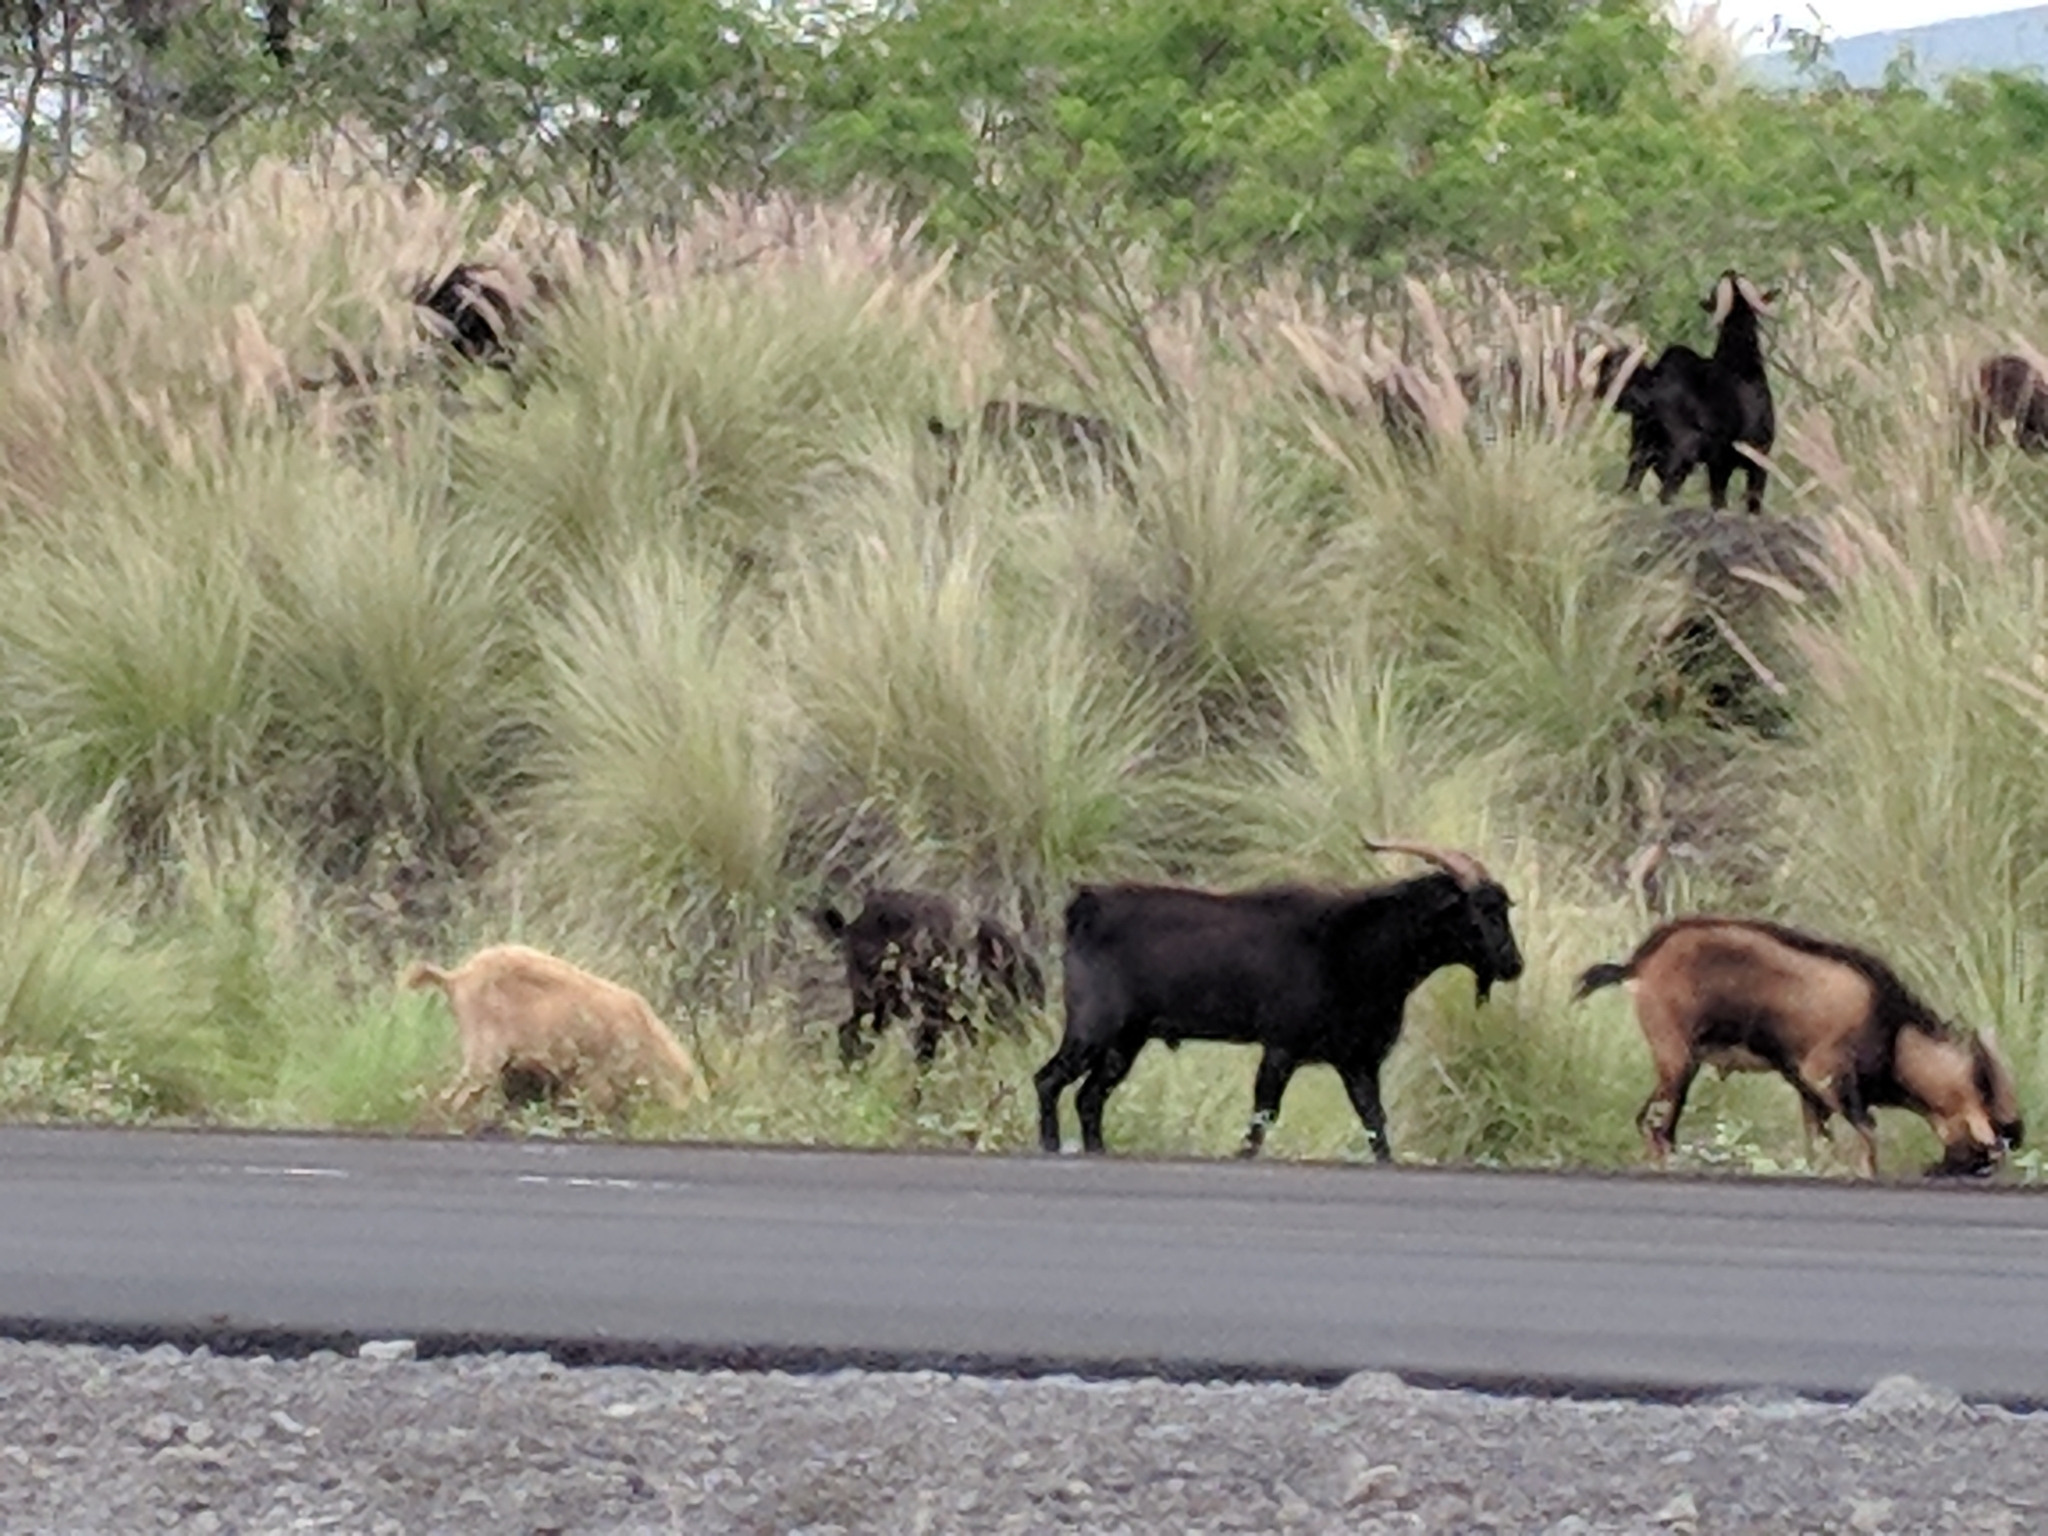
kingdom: Animalia
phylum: Chordata
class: Mammalia
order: Artiodactyla
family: Bovidae
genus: Capra
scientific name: Capra hircus
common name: Domestic goat
